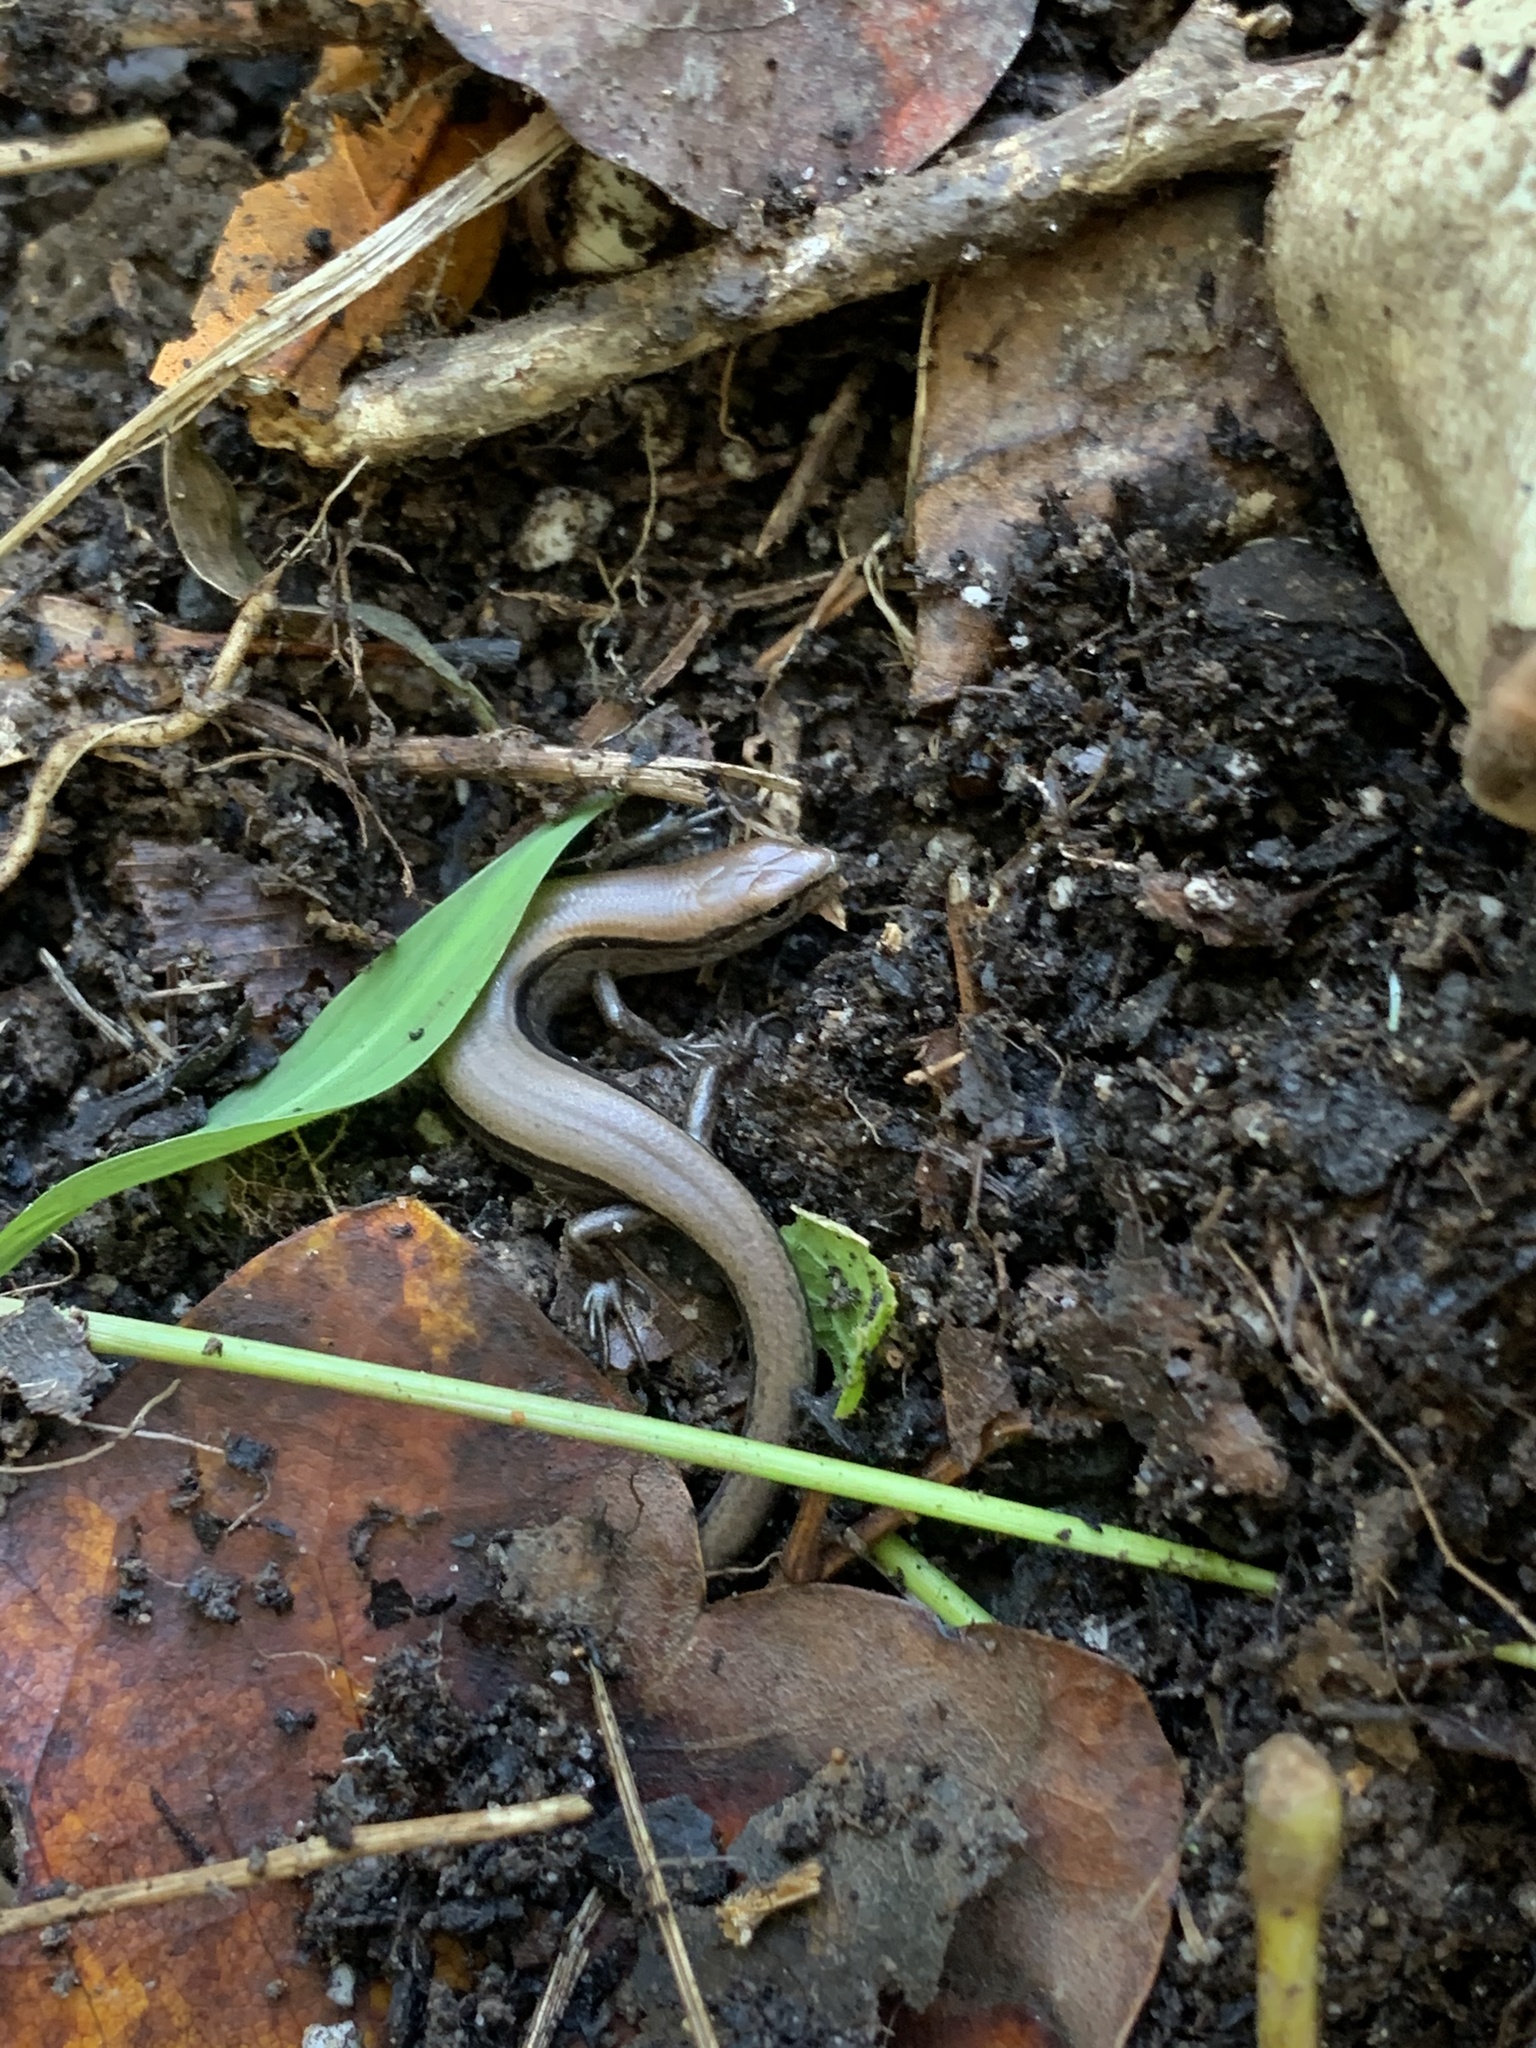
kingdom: Animalia
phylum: Chordata
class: Squamata
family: Scincidae
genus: Scincella
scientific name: Scincella lateralis
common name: Ground skink
